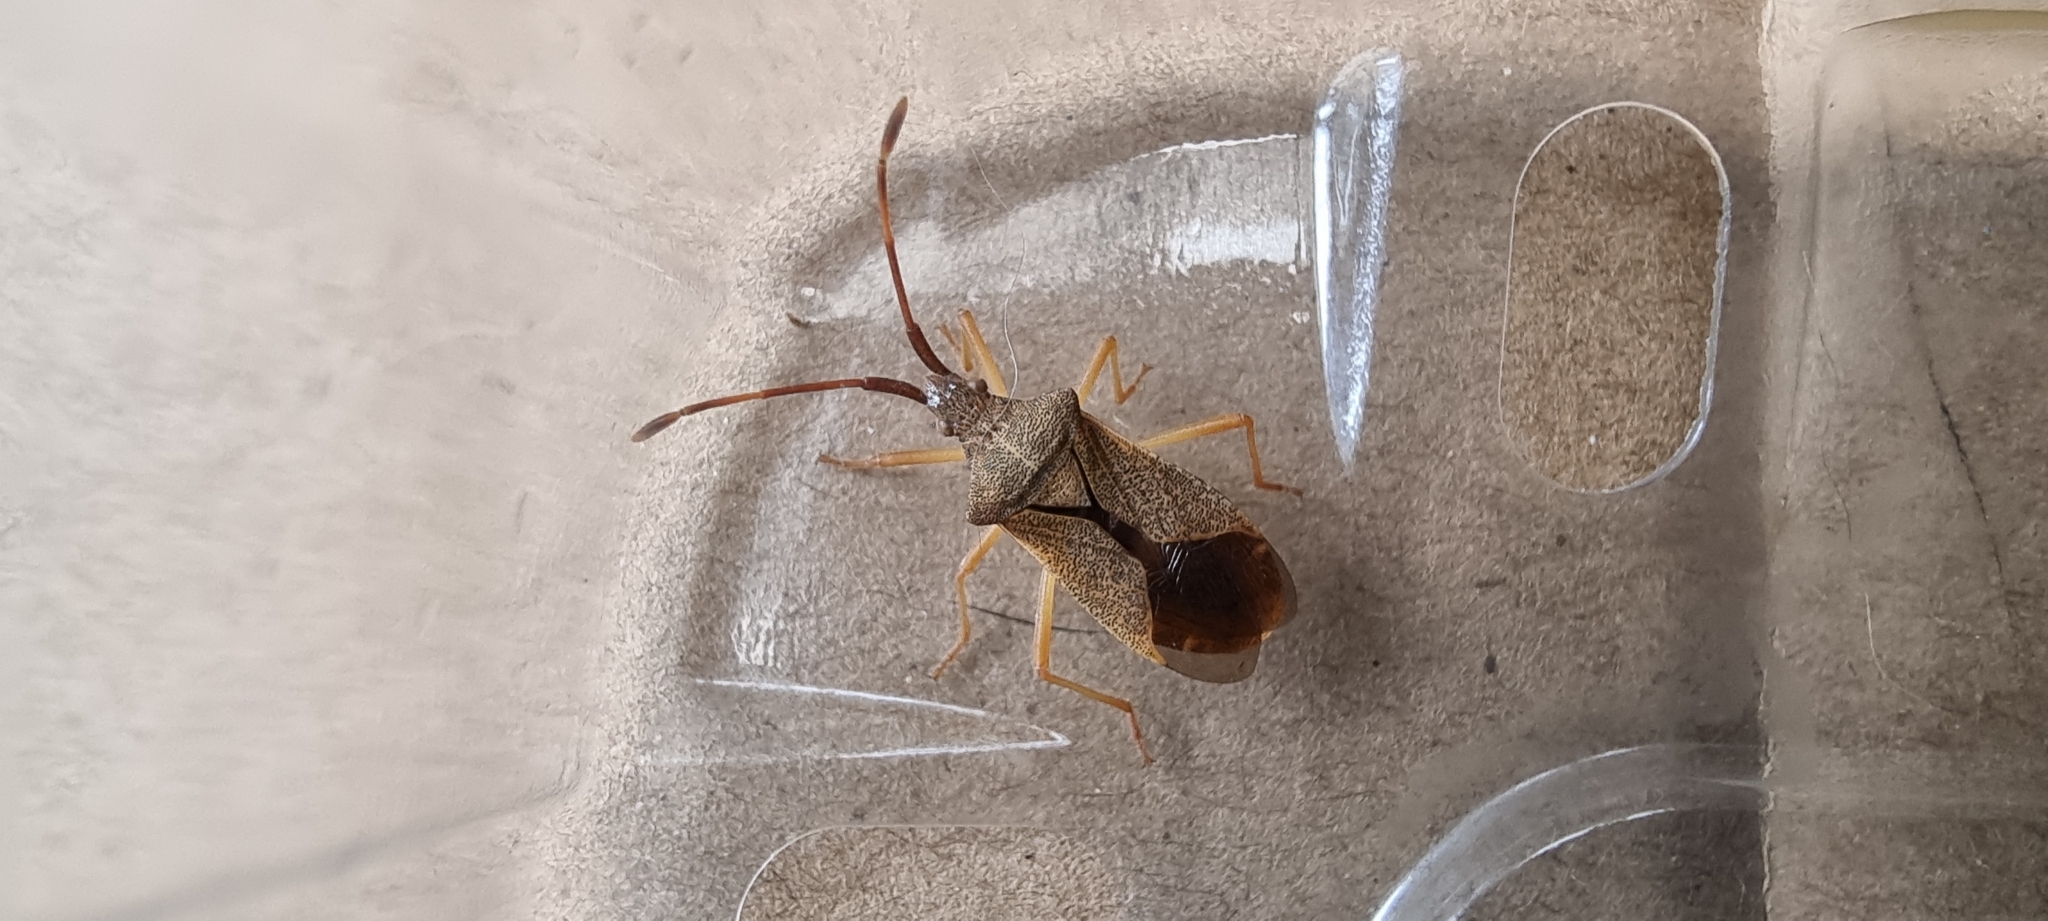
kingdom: Animalia
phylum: Arthropoda
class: Insecta
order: Hemiptera
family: Coreidae
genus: Gonocerus
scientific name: Gonocerus acuteangulatus
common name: Box bug
